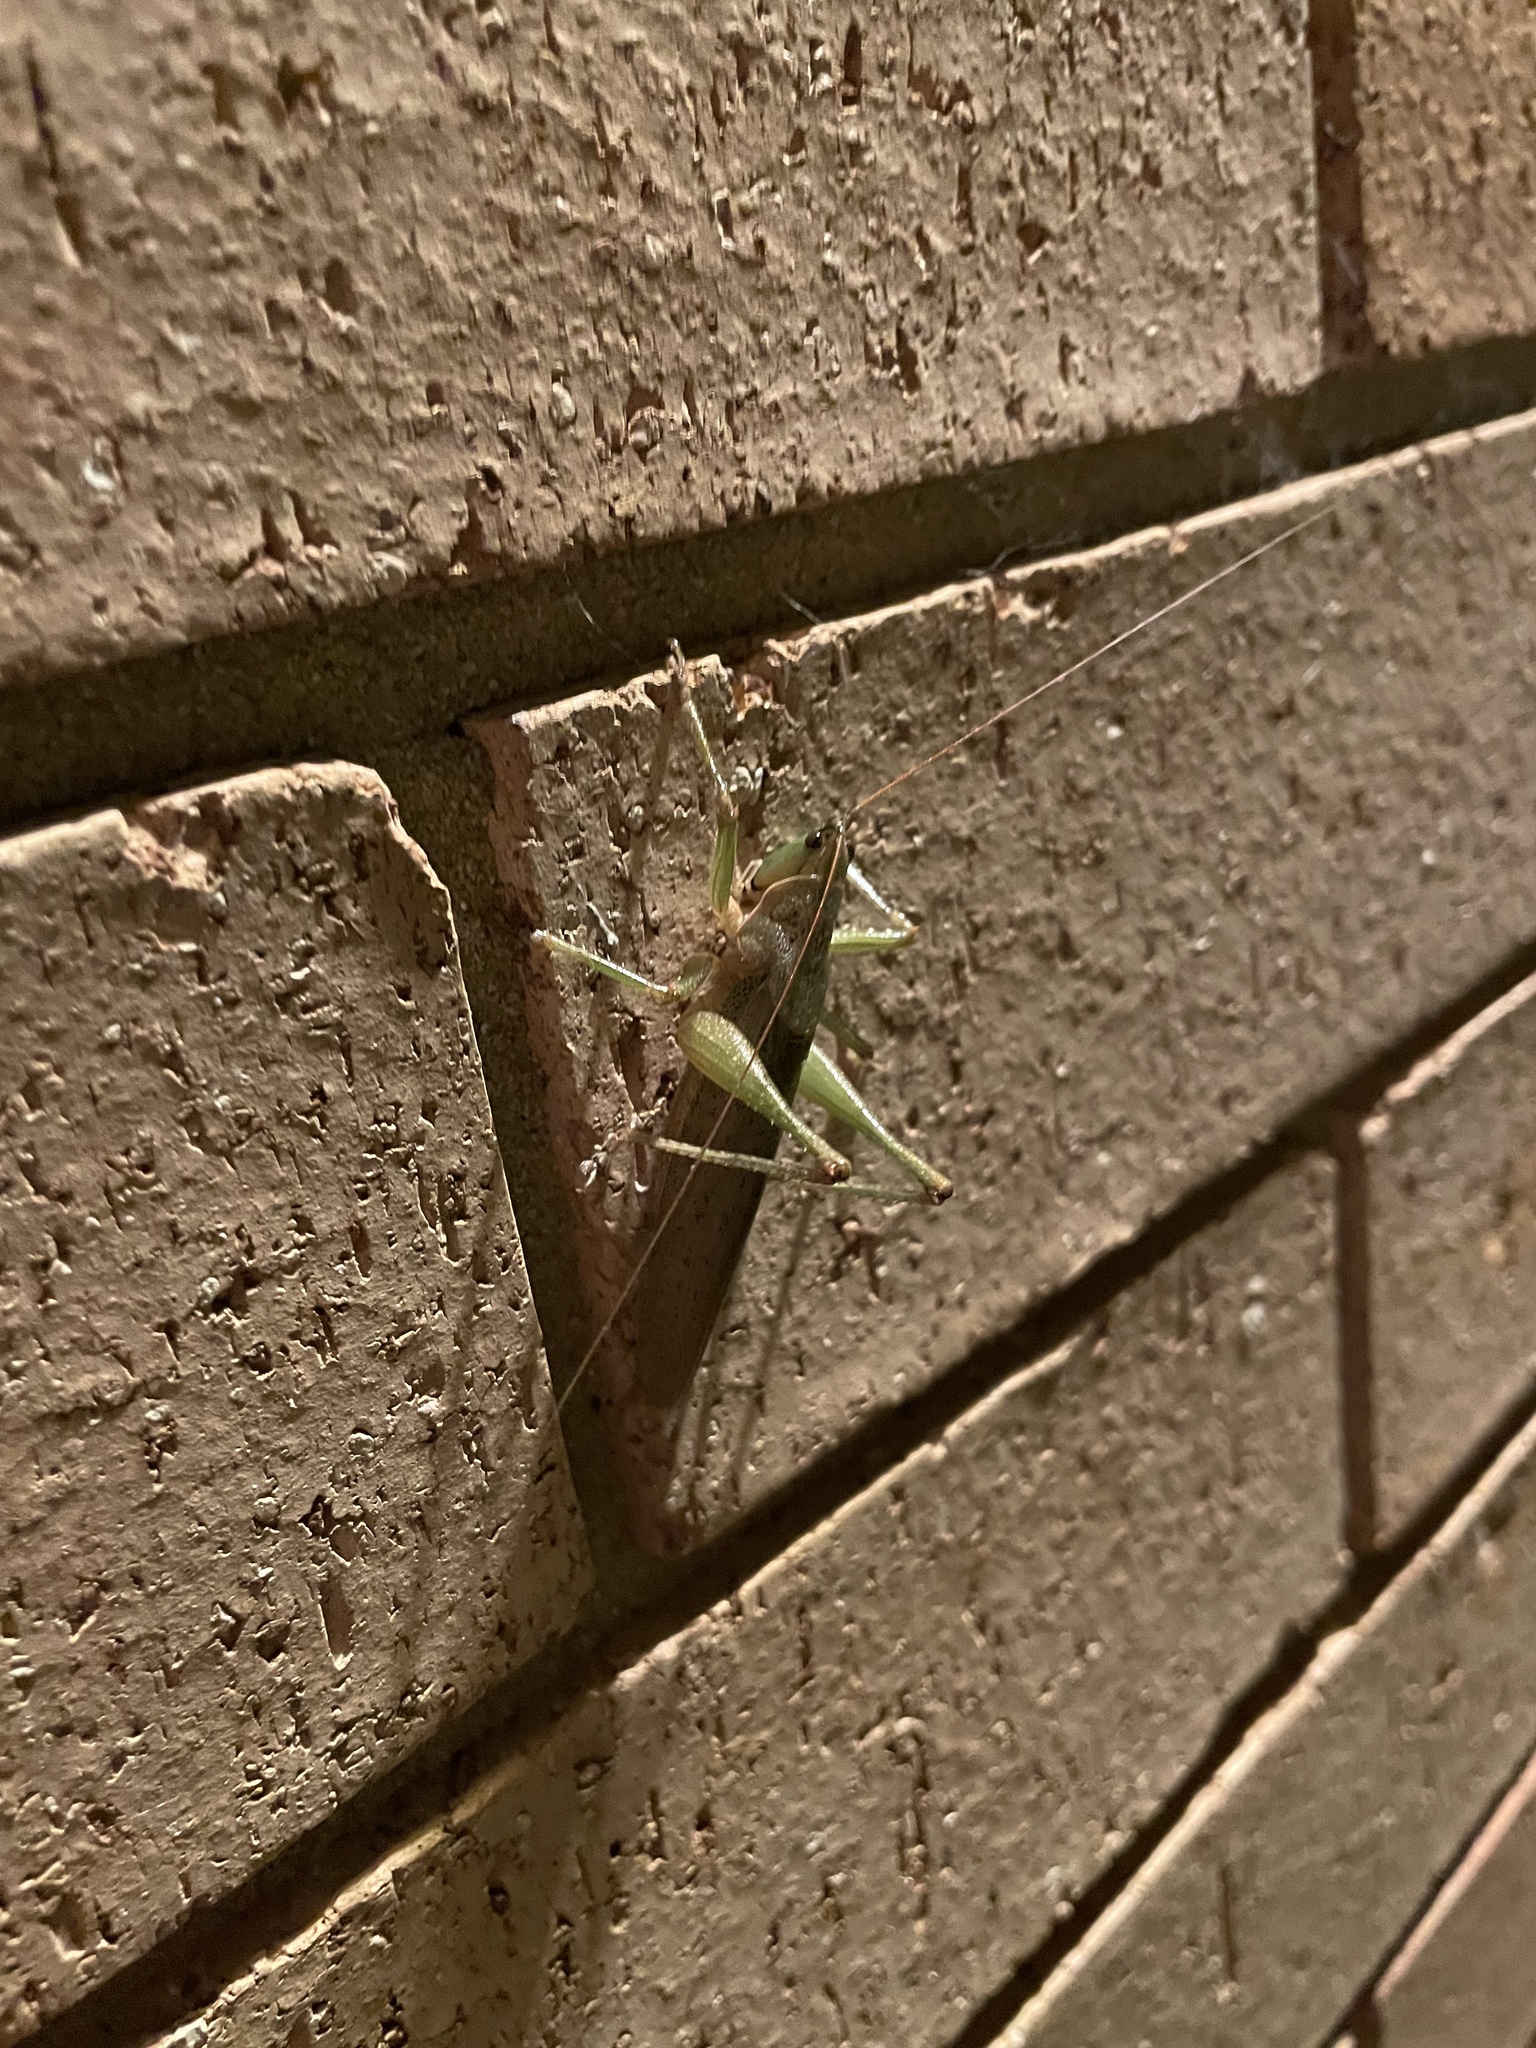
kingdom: Animalia
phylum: Arthropoda
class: Insecta
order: Orthoptera
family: Tettigoniidae
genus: Austrosalomona
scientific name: Austrosalomona falcata
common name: Olive-green coastal katydid
